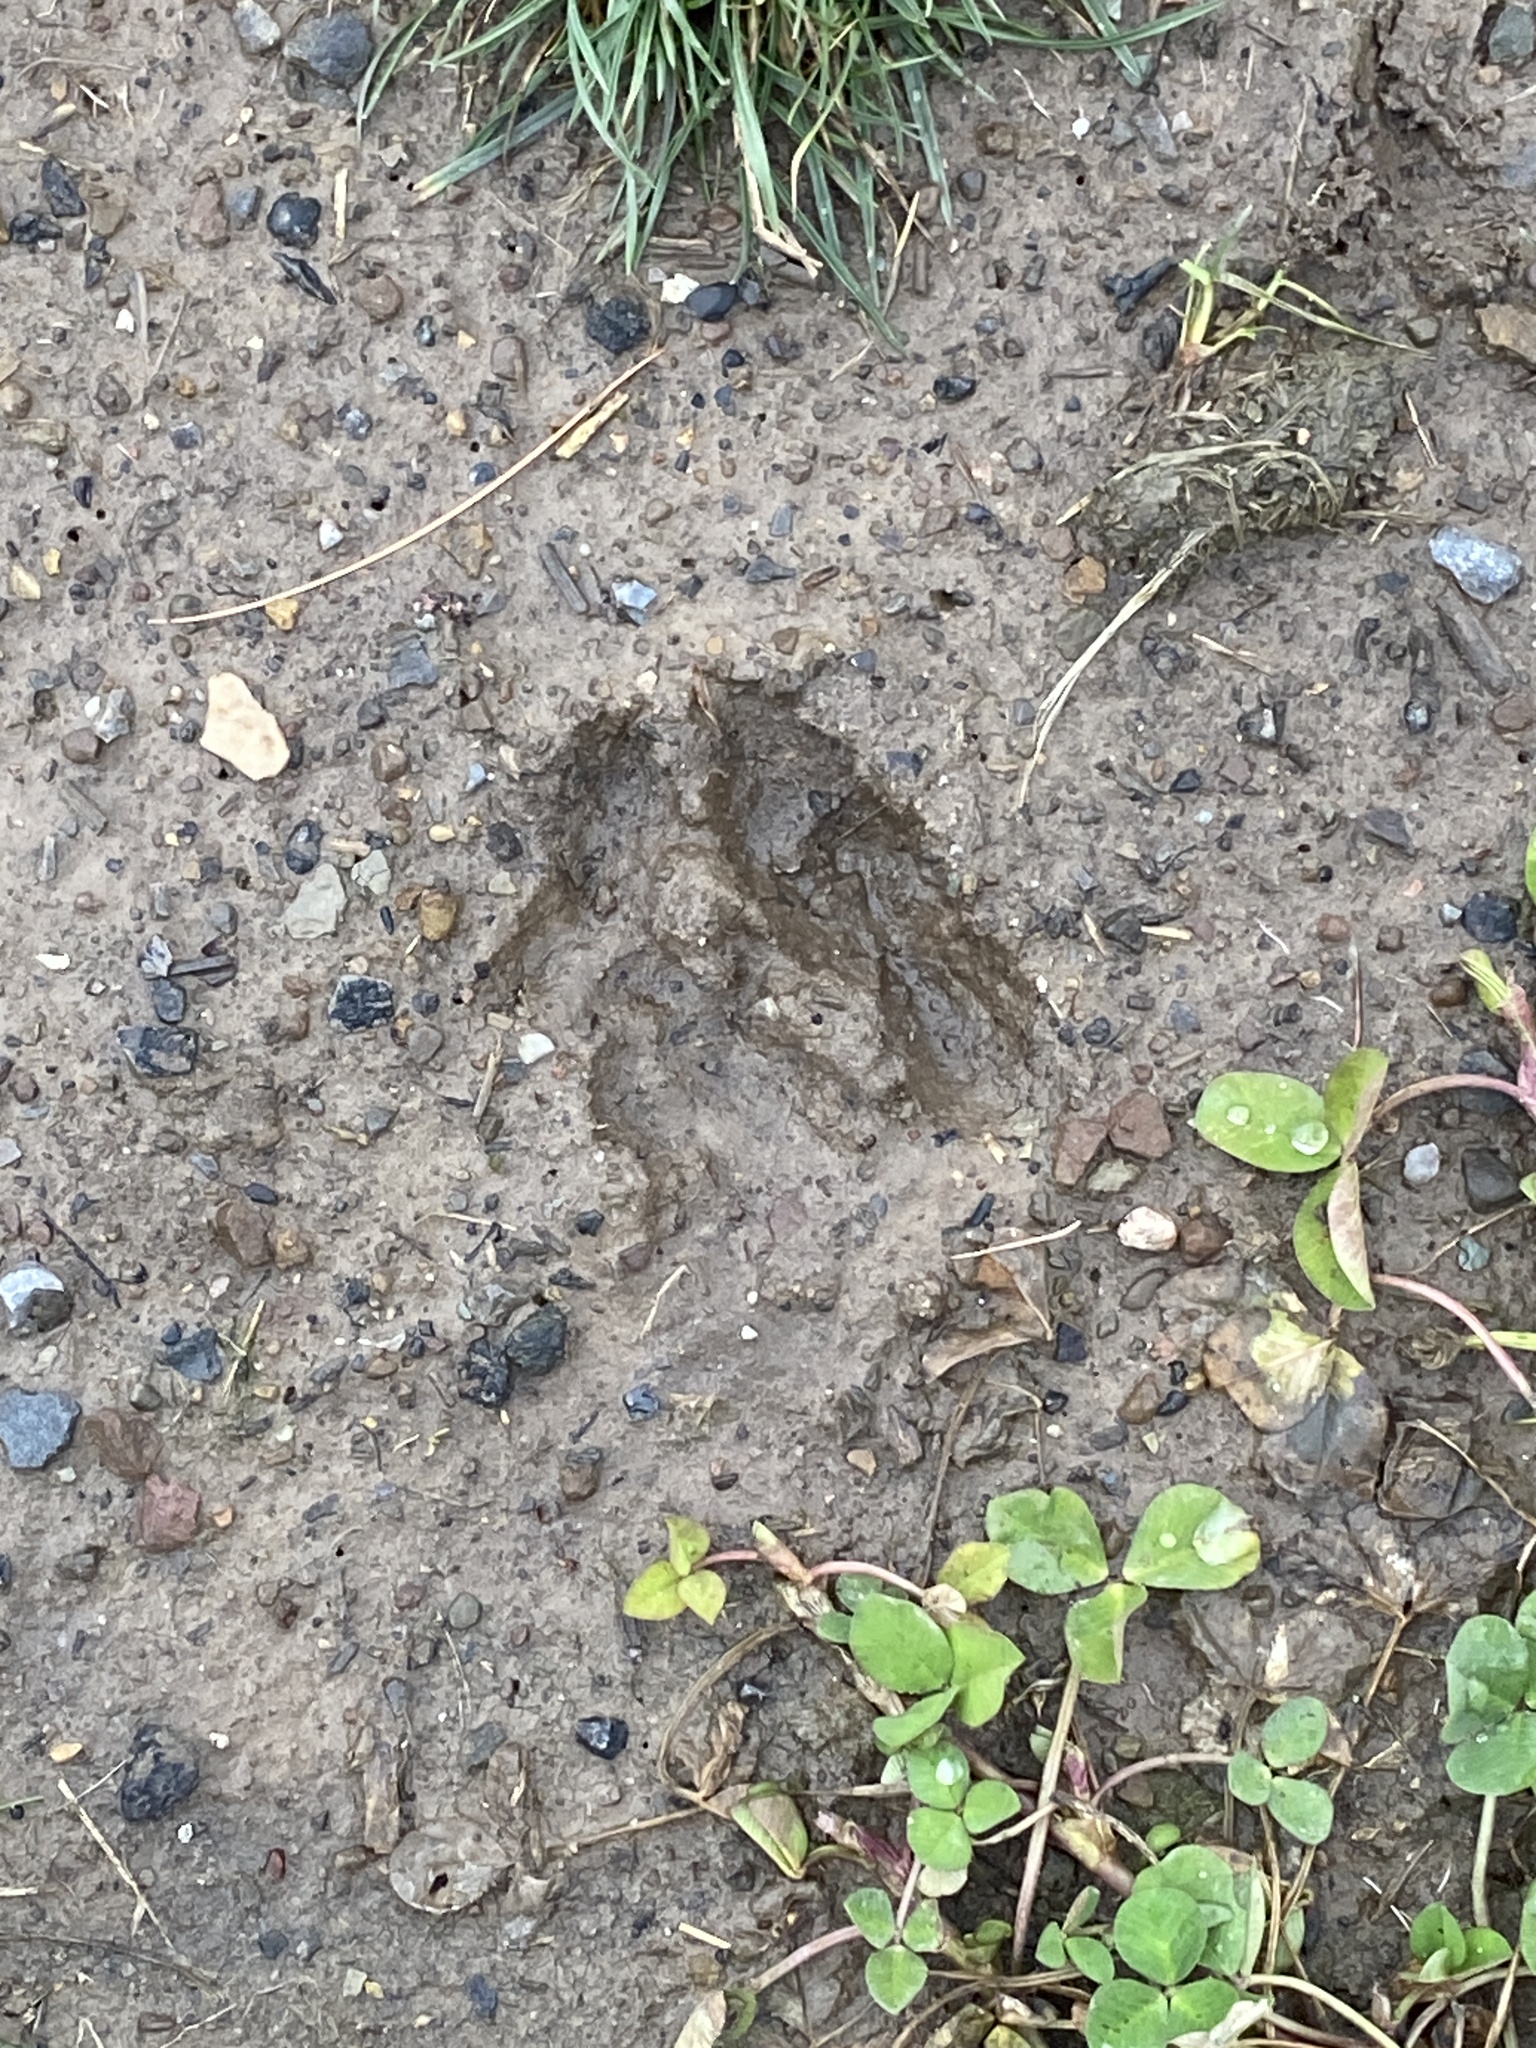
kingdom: Animalia
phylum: Chordata
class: Mammalia
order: Artiodactyla
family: Cervidae
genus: Odocoileus
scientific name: Odocoileus virginianus
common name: White-tailed deer
